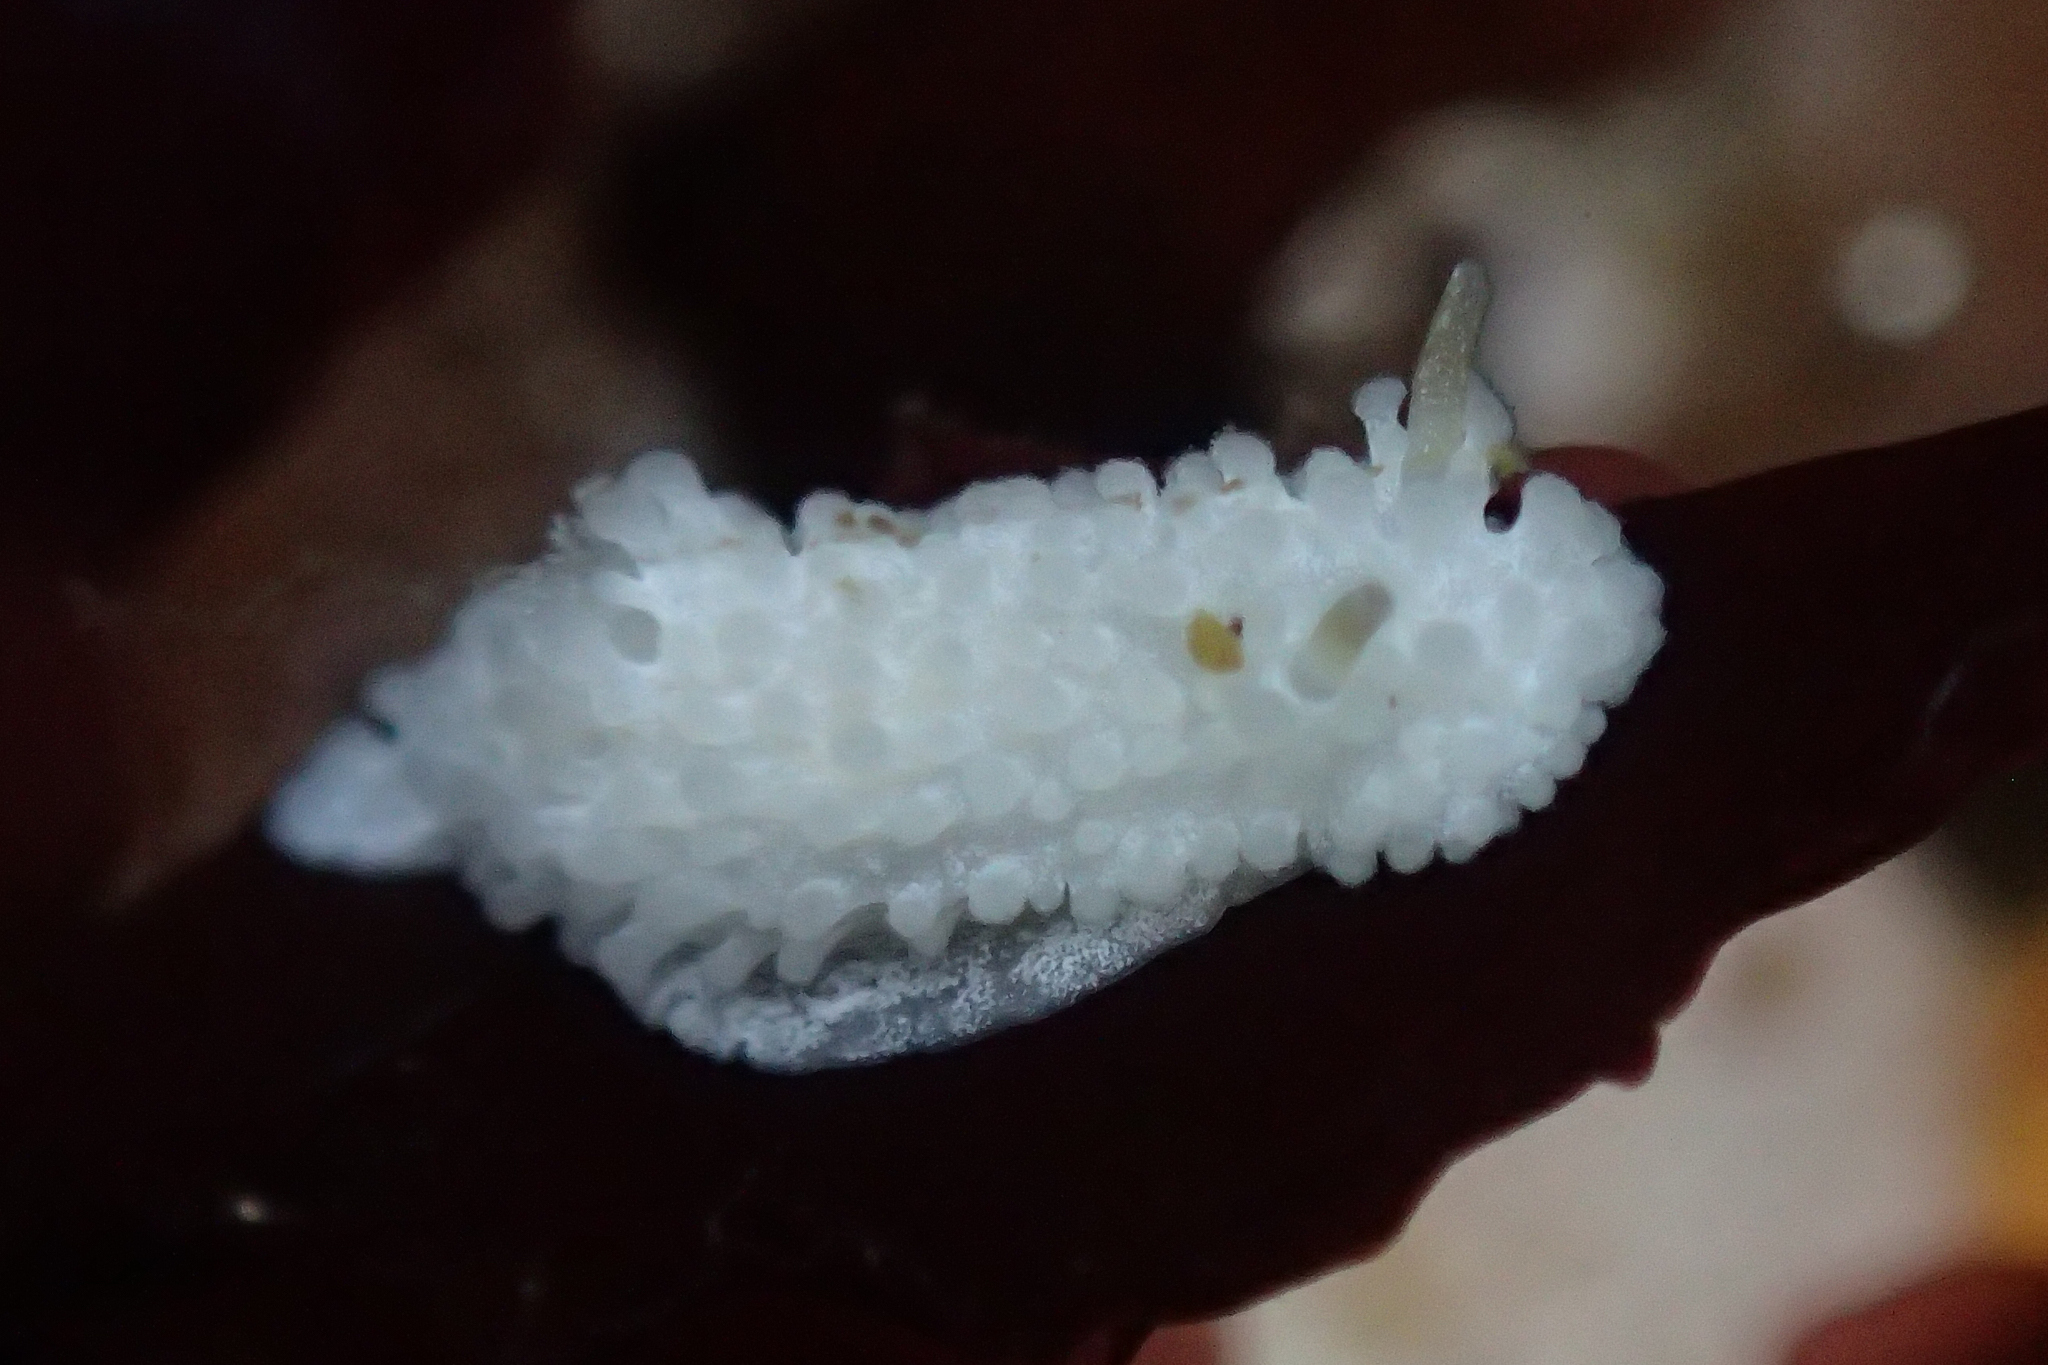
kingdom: Animalia
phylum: Mollusca
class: Gastropoda
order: Nudibranchia
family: Aegiridae
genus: Aegires
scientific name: Aegires albopunctatus
